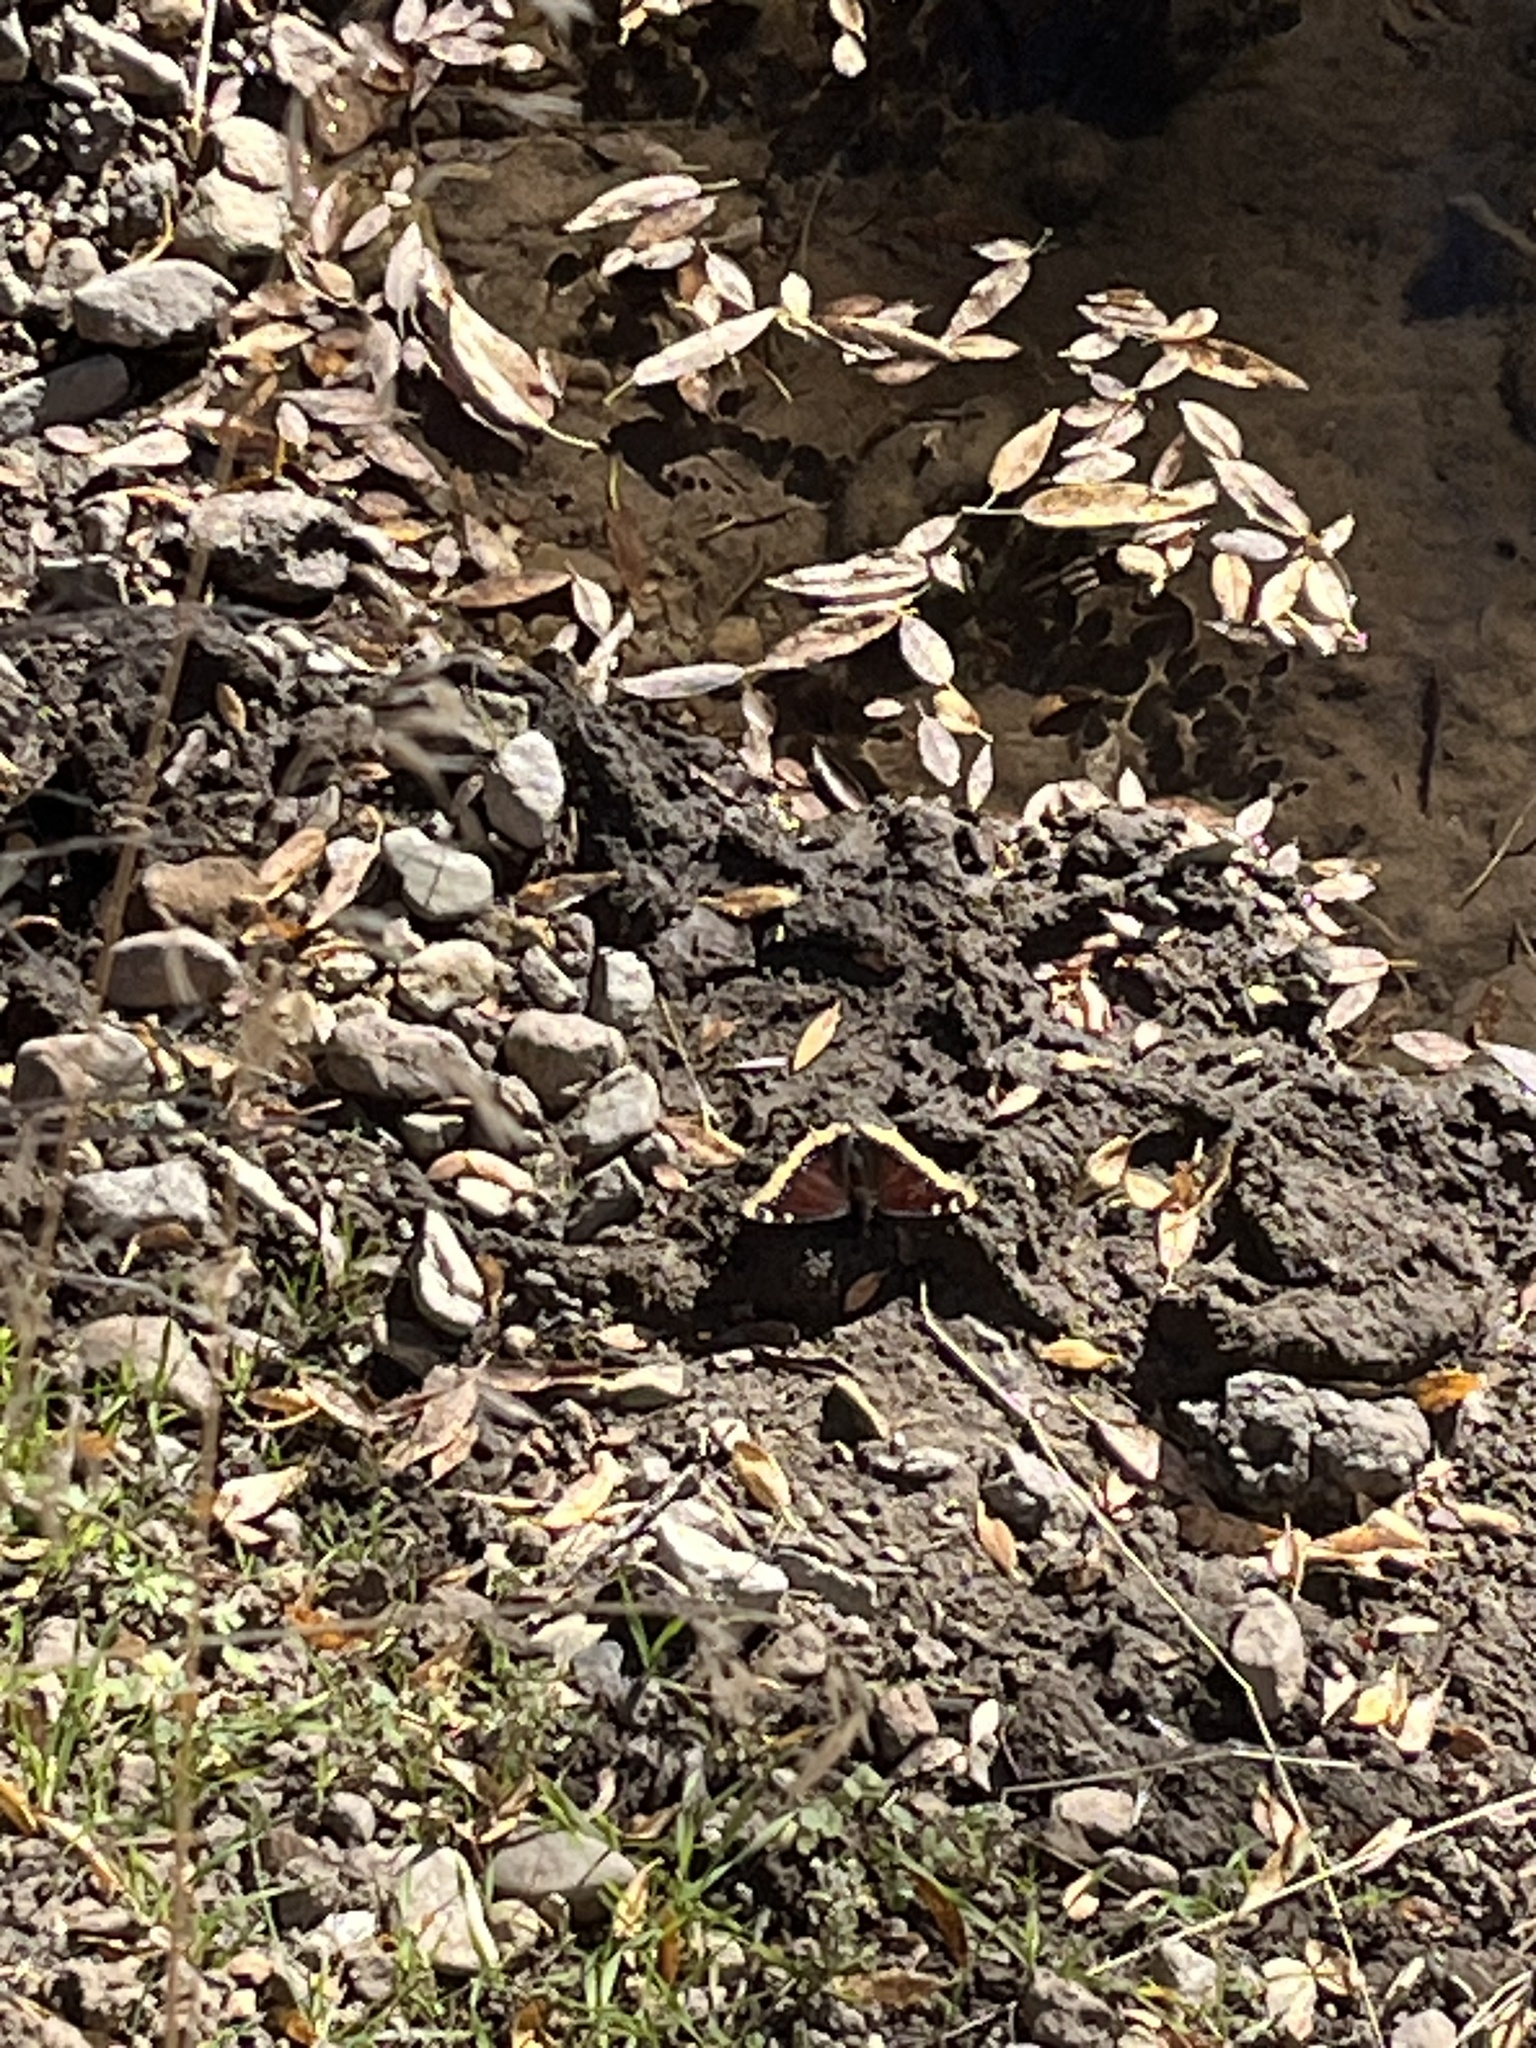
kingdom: Animalia
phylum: Arthropoda
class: Insecta
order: Lepidoptera
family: Nymphalidae
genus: Nymphalis
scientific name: Nymphalis antiopa
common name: Camberwell beauty
